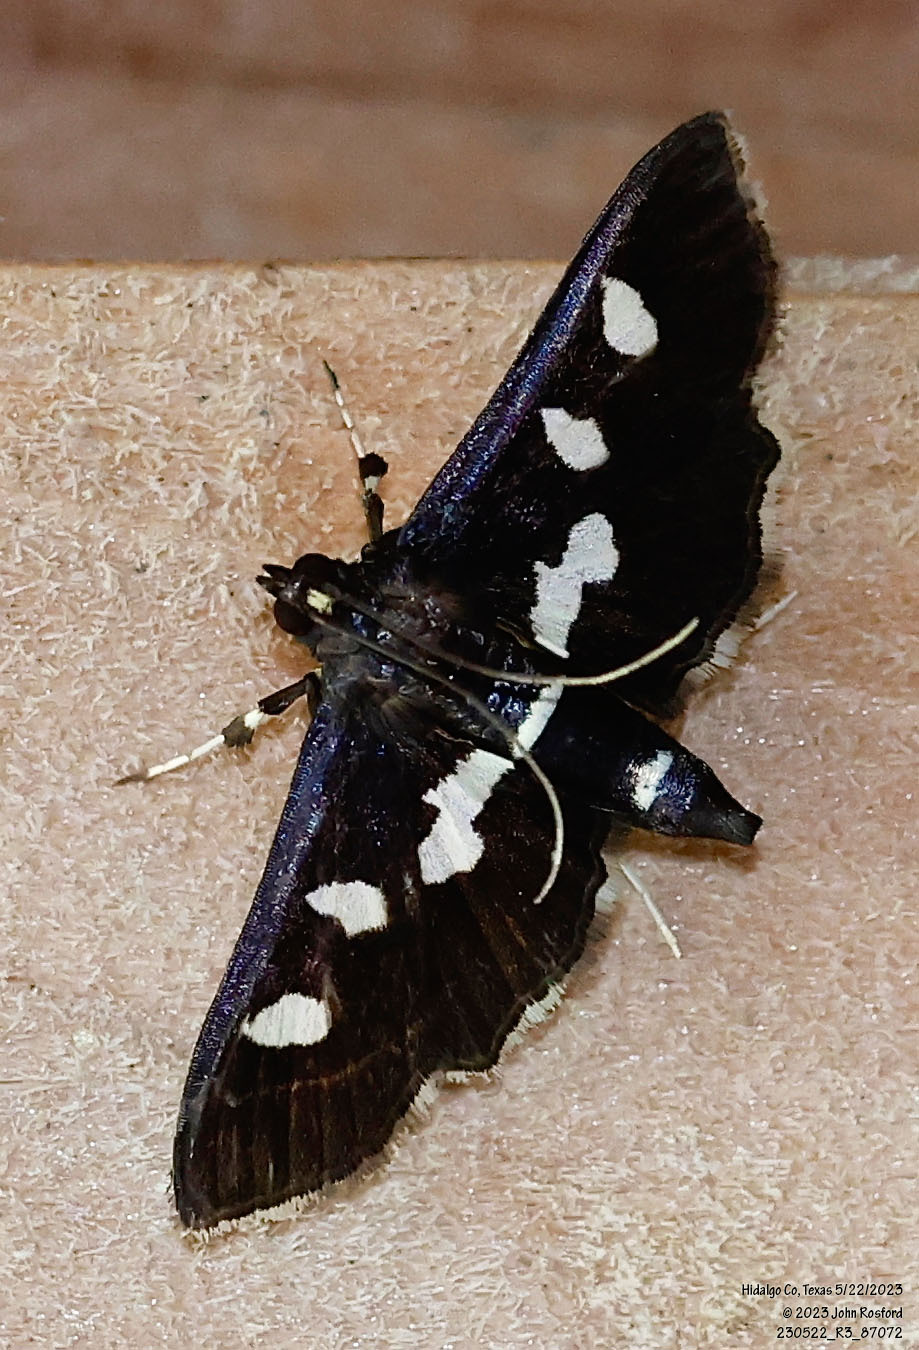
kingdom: Animalia
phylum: Arthropoda
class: Insecta
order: Lepidoptera
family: Crambidae
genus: Desmia
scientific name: Desmia funeralis
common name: Grape leaf folder moth
